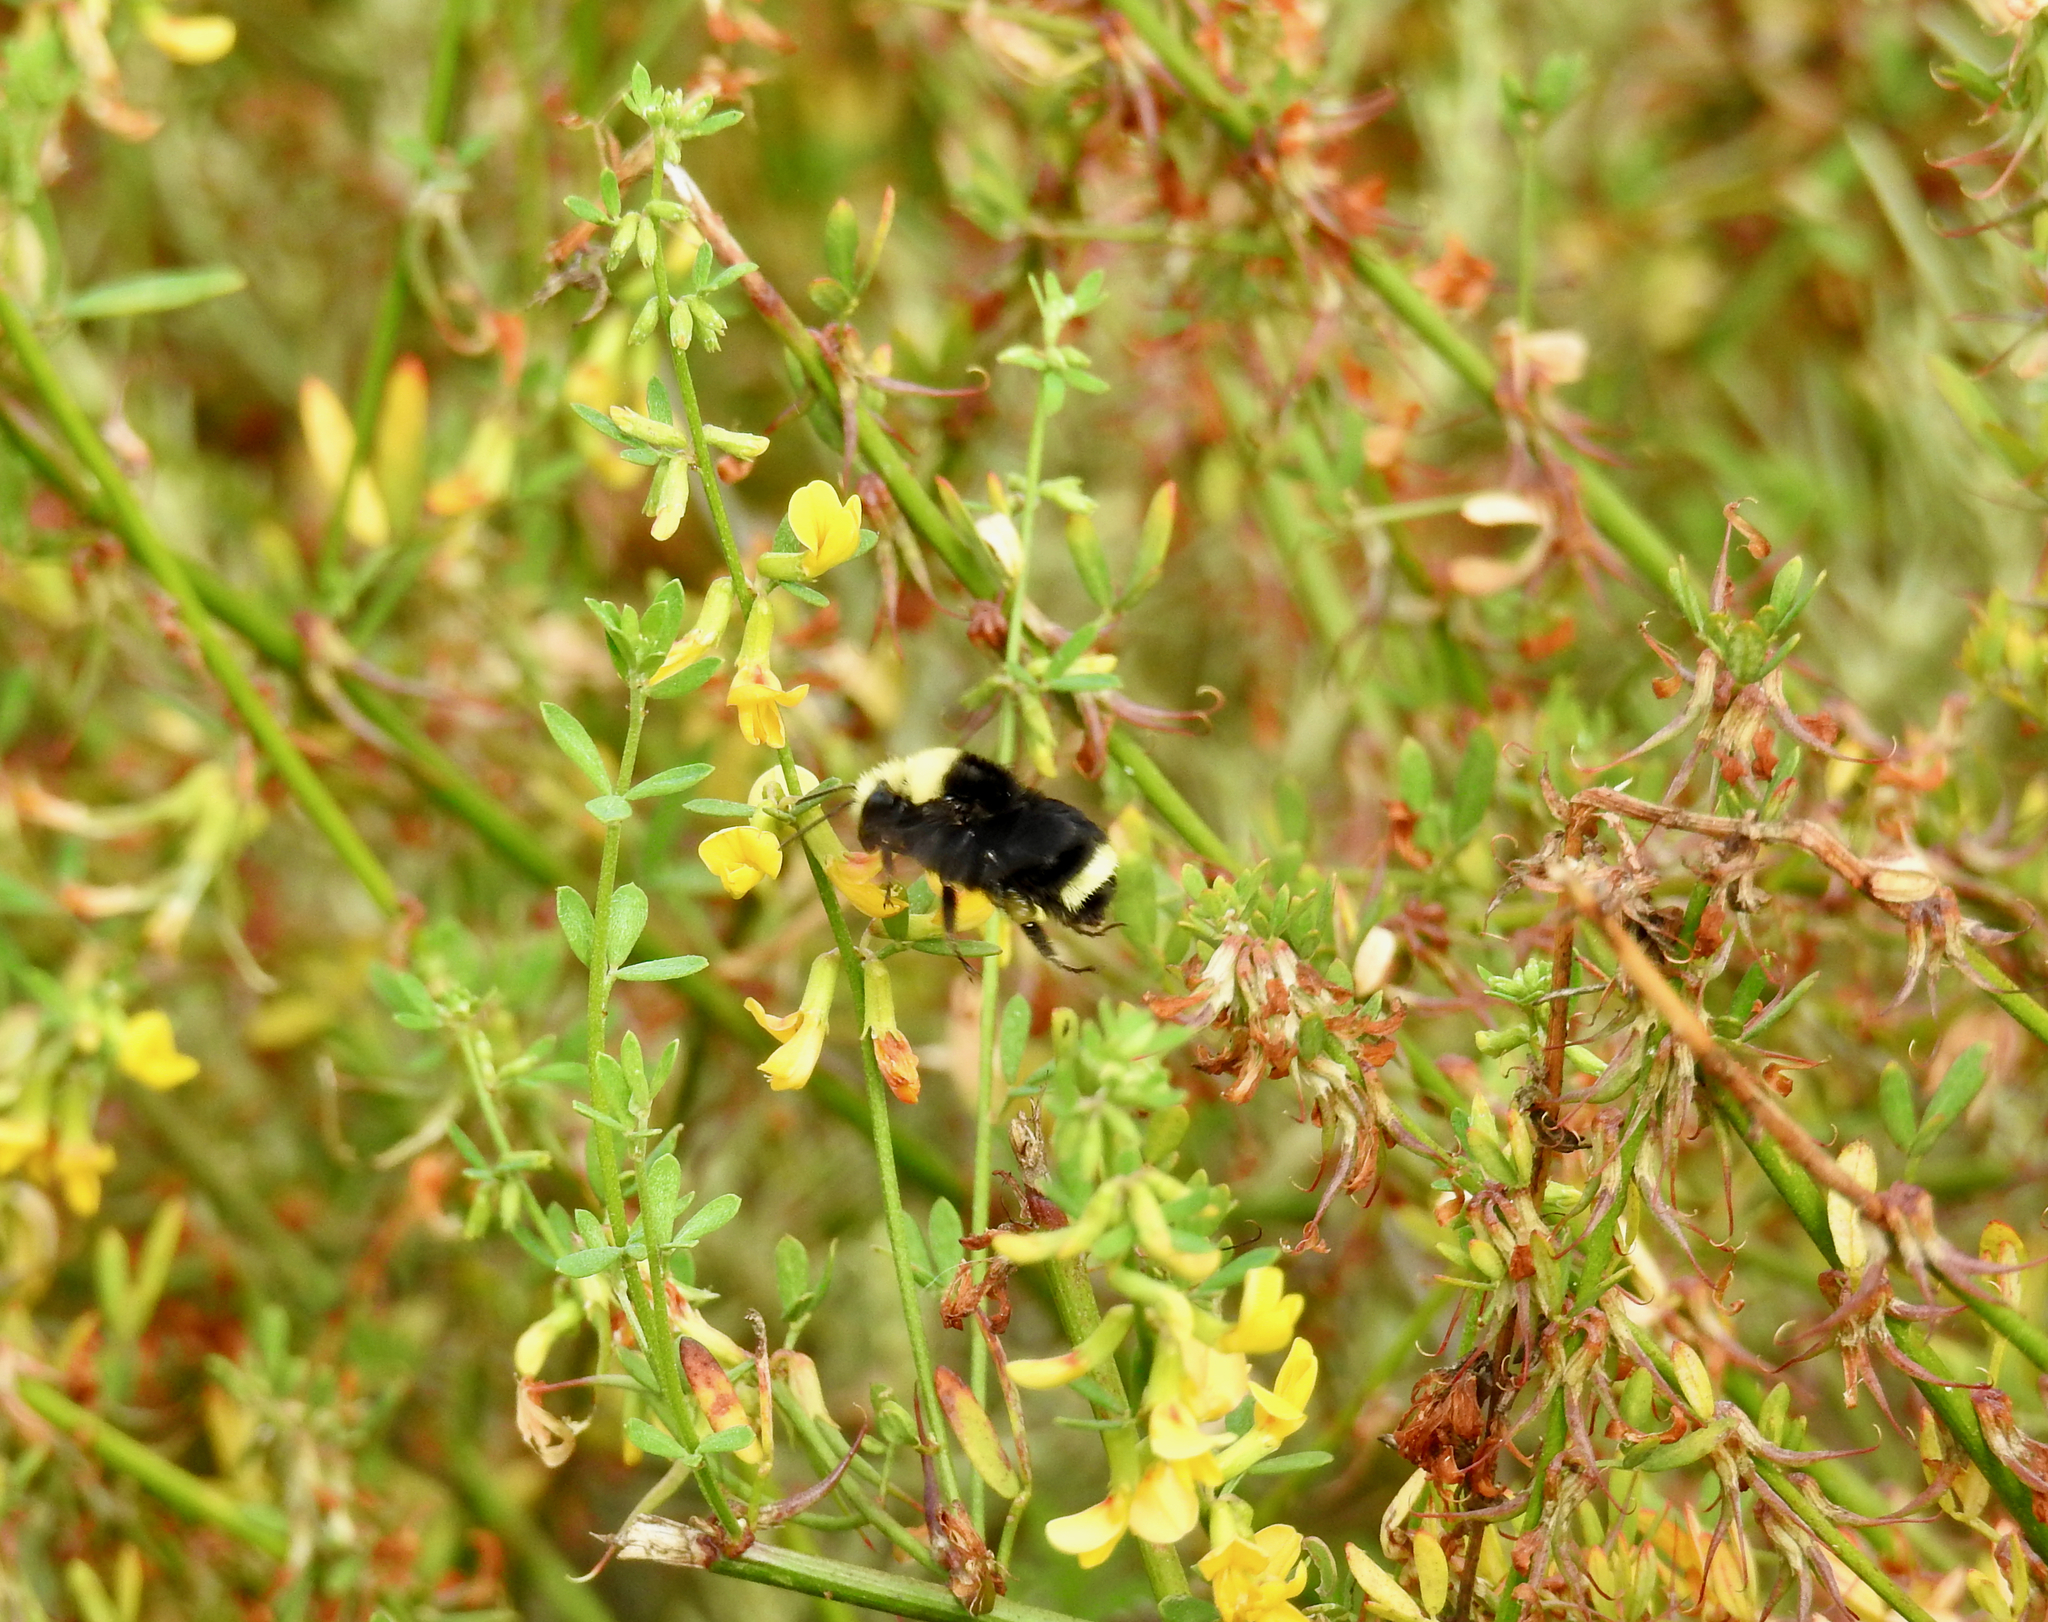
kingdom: Animalia
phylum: Arthropoda
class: Insecta
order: Hymenoptera
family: Apidae
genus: Bombus
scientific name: Bombus vosnesenskii
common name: Vosnesensky bumble bee
